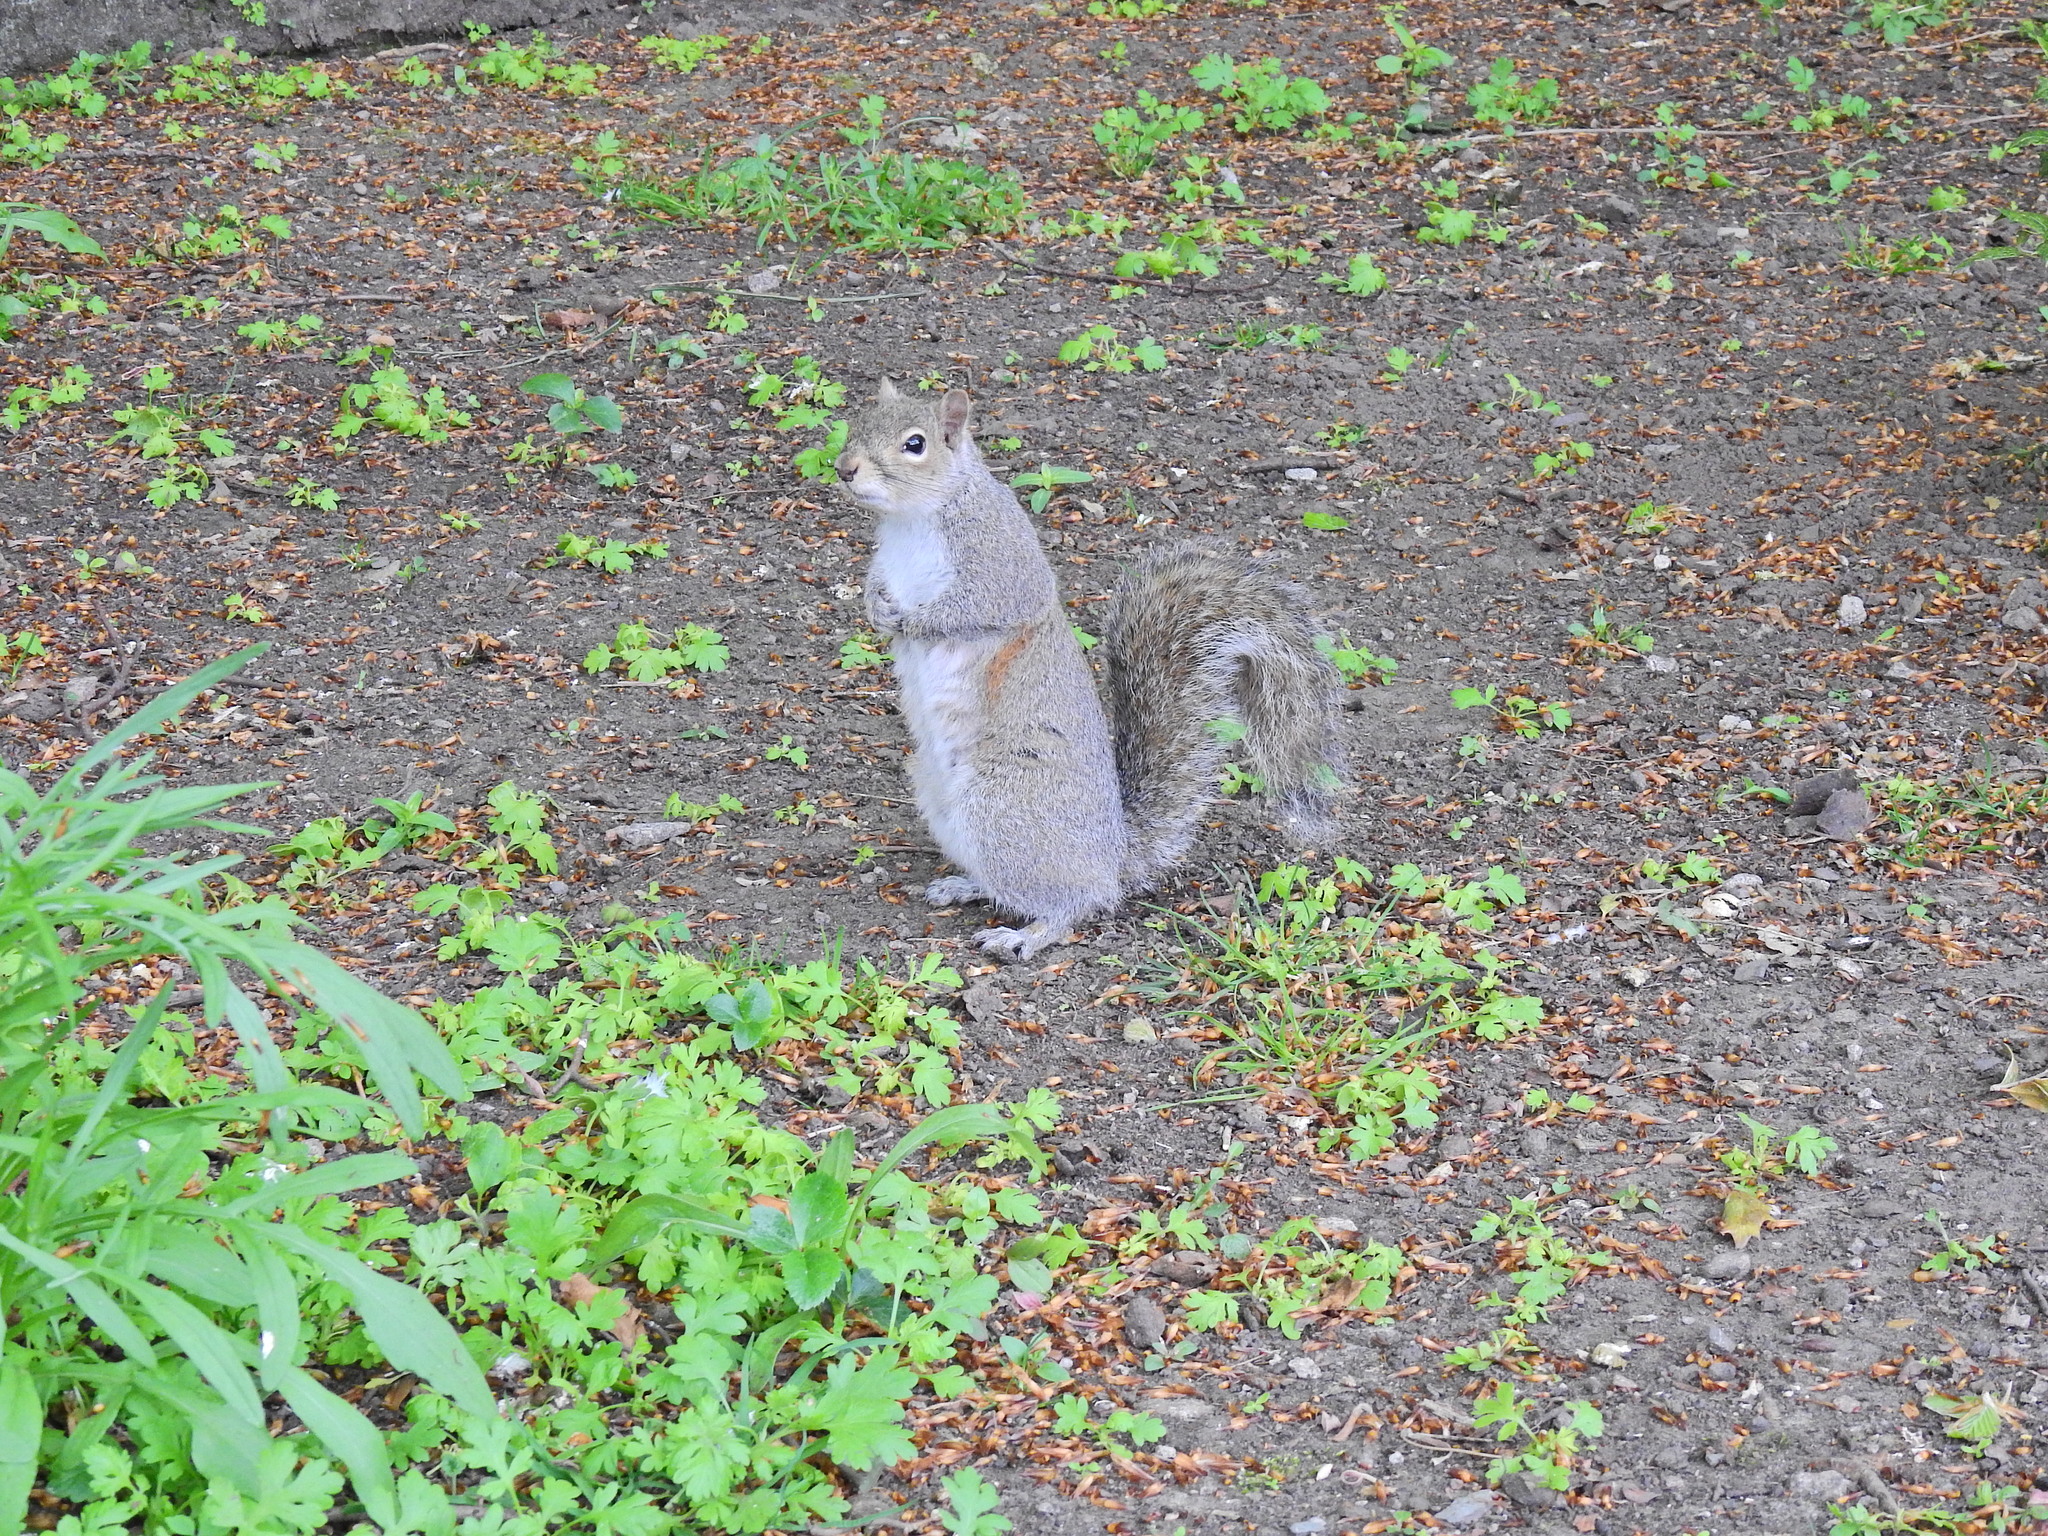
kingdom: Animalia
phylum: Chordata
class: Mammalia
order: Rodentia
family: Sciuridae
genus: Sciurus
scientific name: Sciurus carolinensis
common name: Eastern gray squirrel
